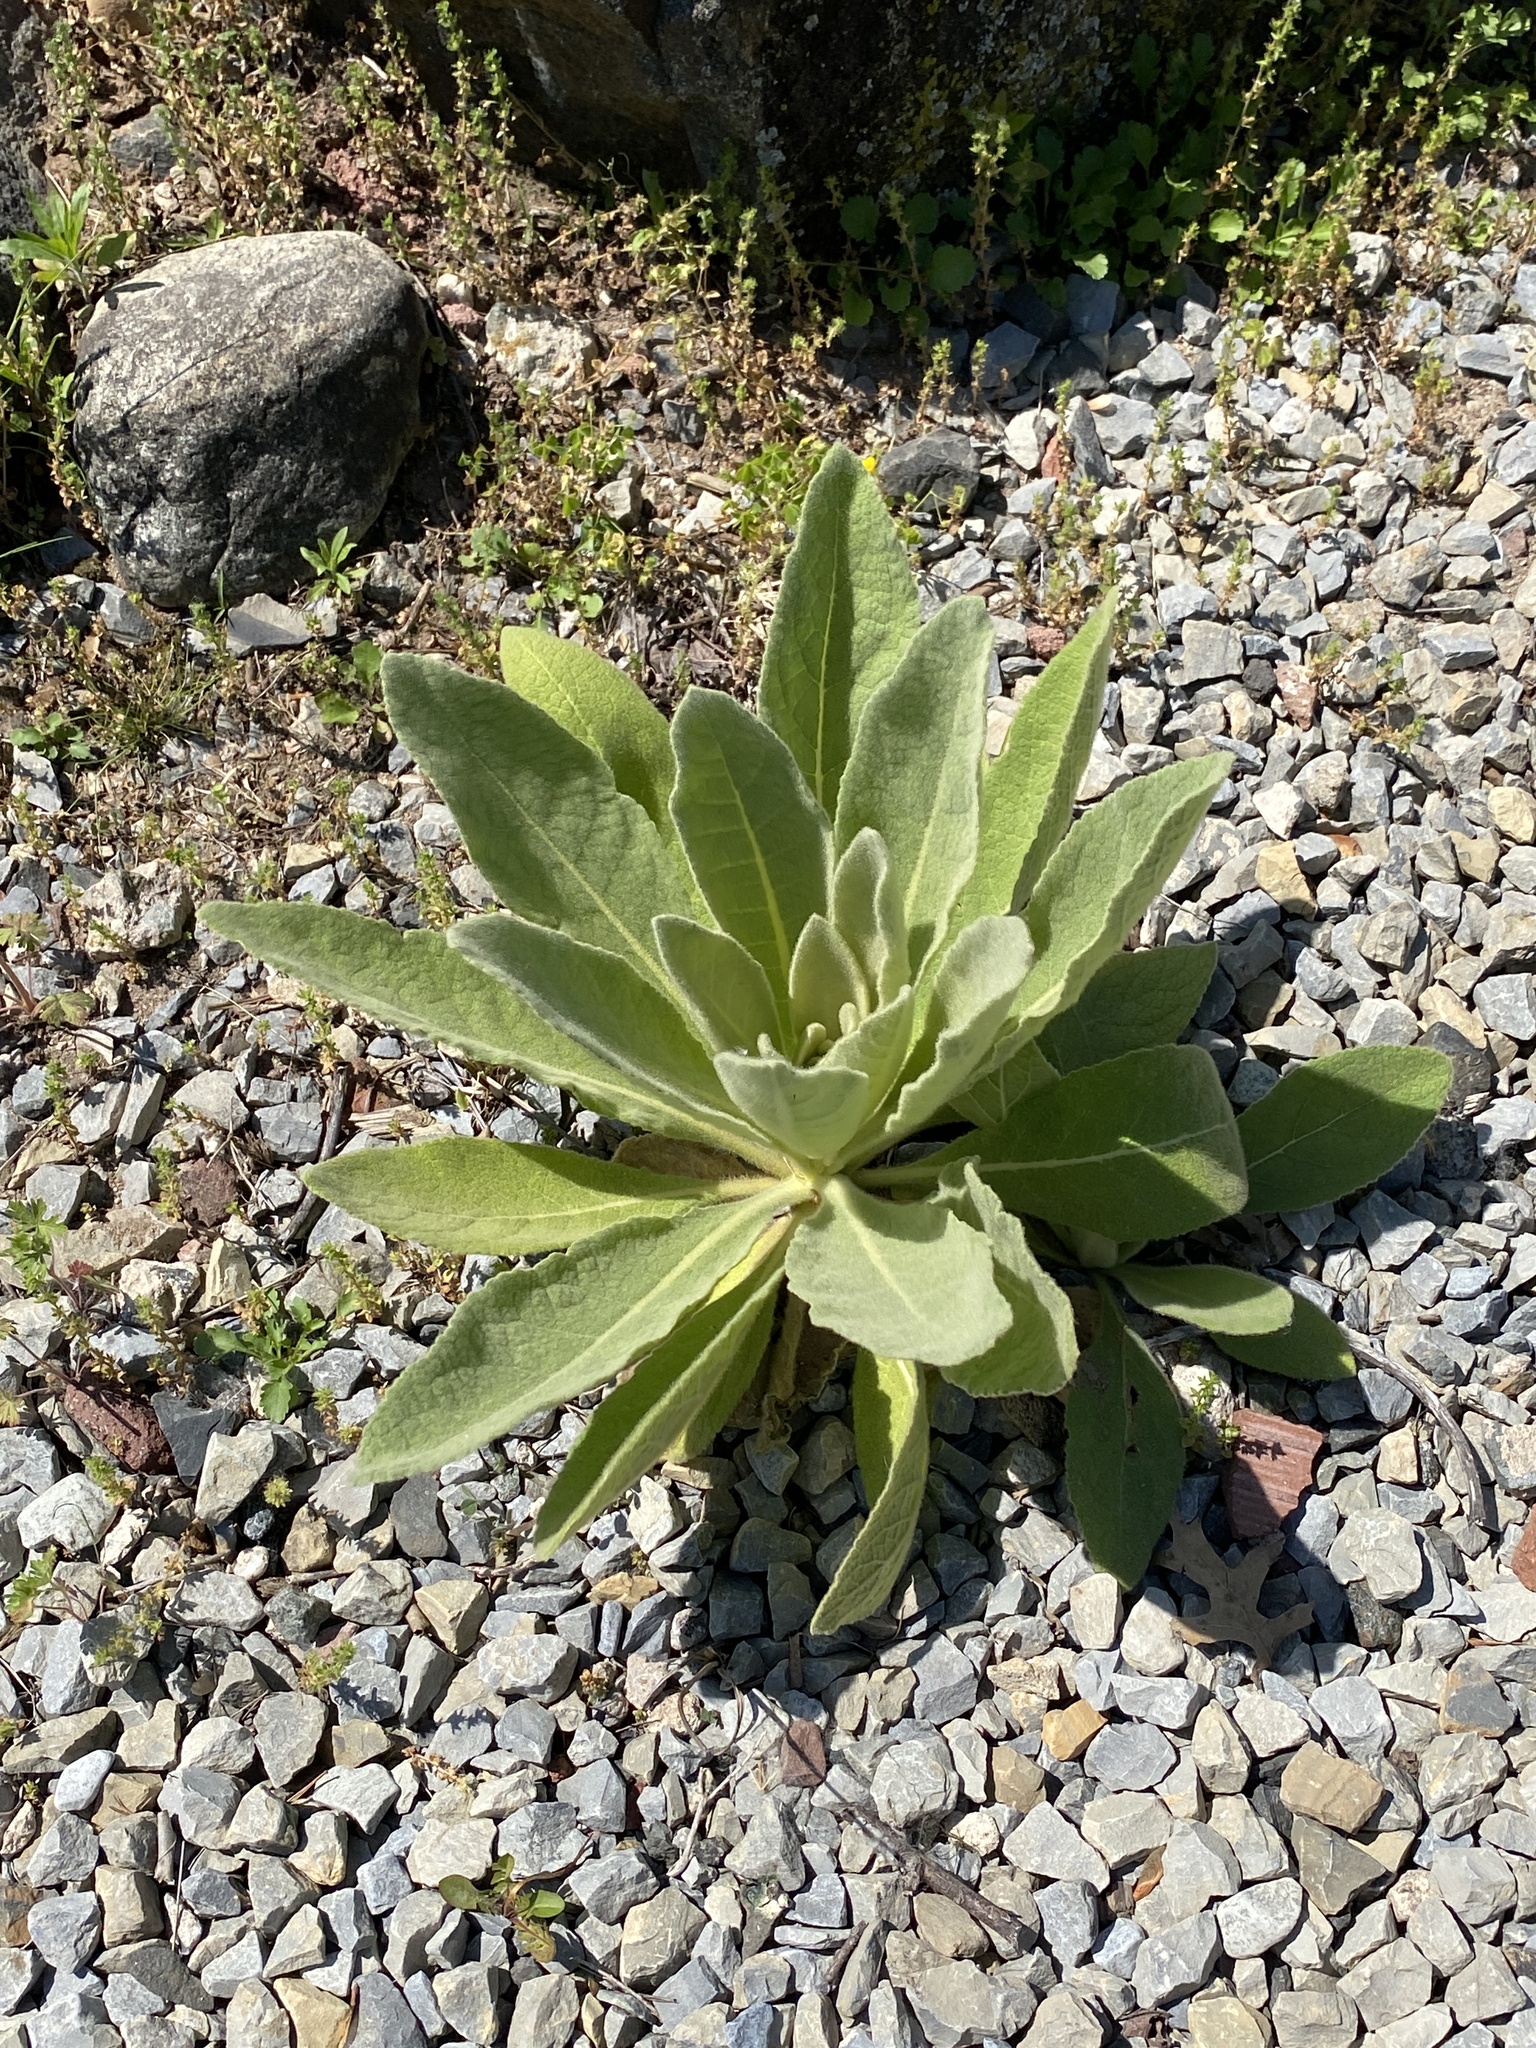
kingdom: Plantae
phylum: Tracheophyta
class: Magnoliopsida
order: Lamiales
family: Scrophulariaceae
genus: Verbascum
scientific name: Verbascum thapsus
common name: Common mullein
